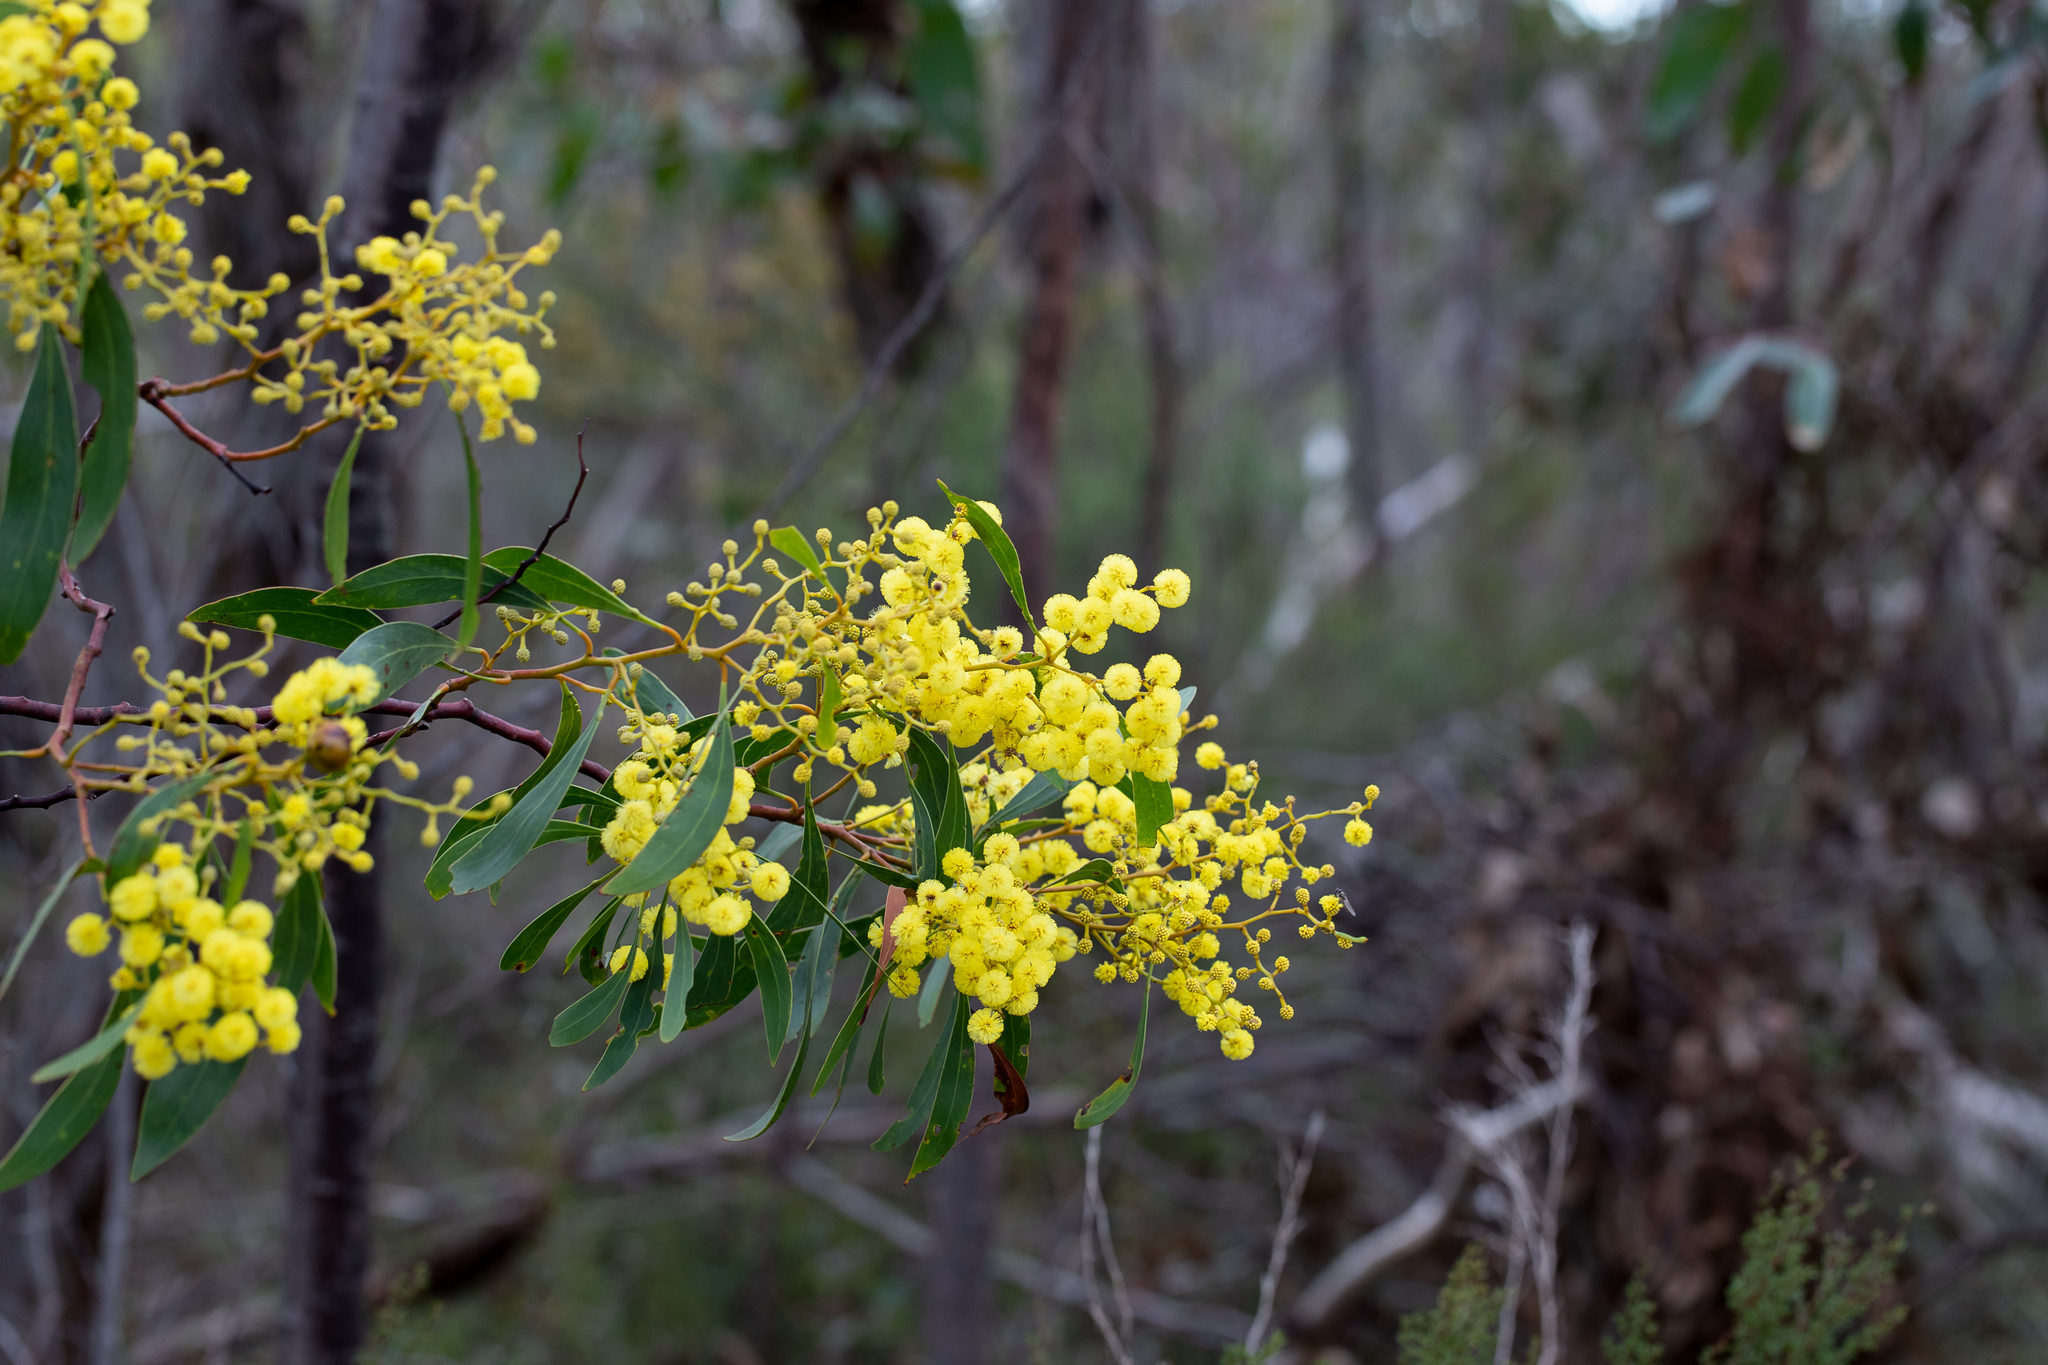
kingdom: Plantae
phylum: Tracheophyta
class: Magnoliopsida
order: Fabales
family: Fabaceae
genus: Acacia
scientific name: Acacia pycnantha
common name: Golden wattle
